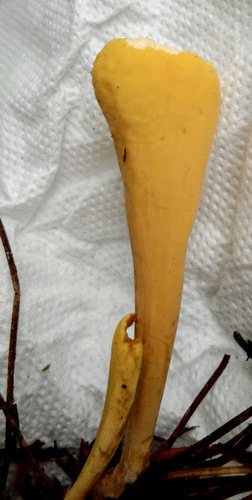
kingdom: Fungi
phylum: Basidiomycota
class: Agaricomycetes
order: Gomphales
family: Clavariadelphaceae
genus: Clavariadelphus
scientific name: Clavariadelphus ligula
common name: Ochre club
